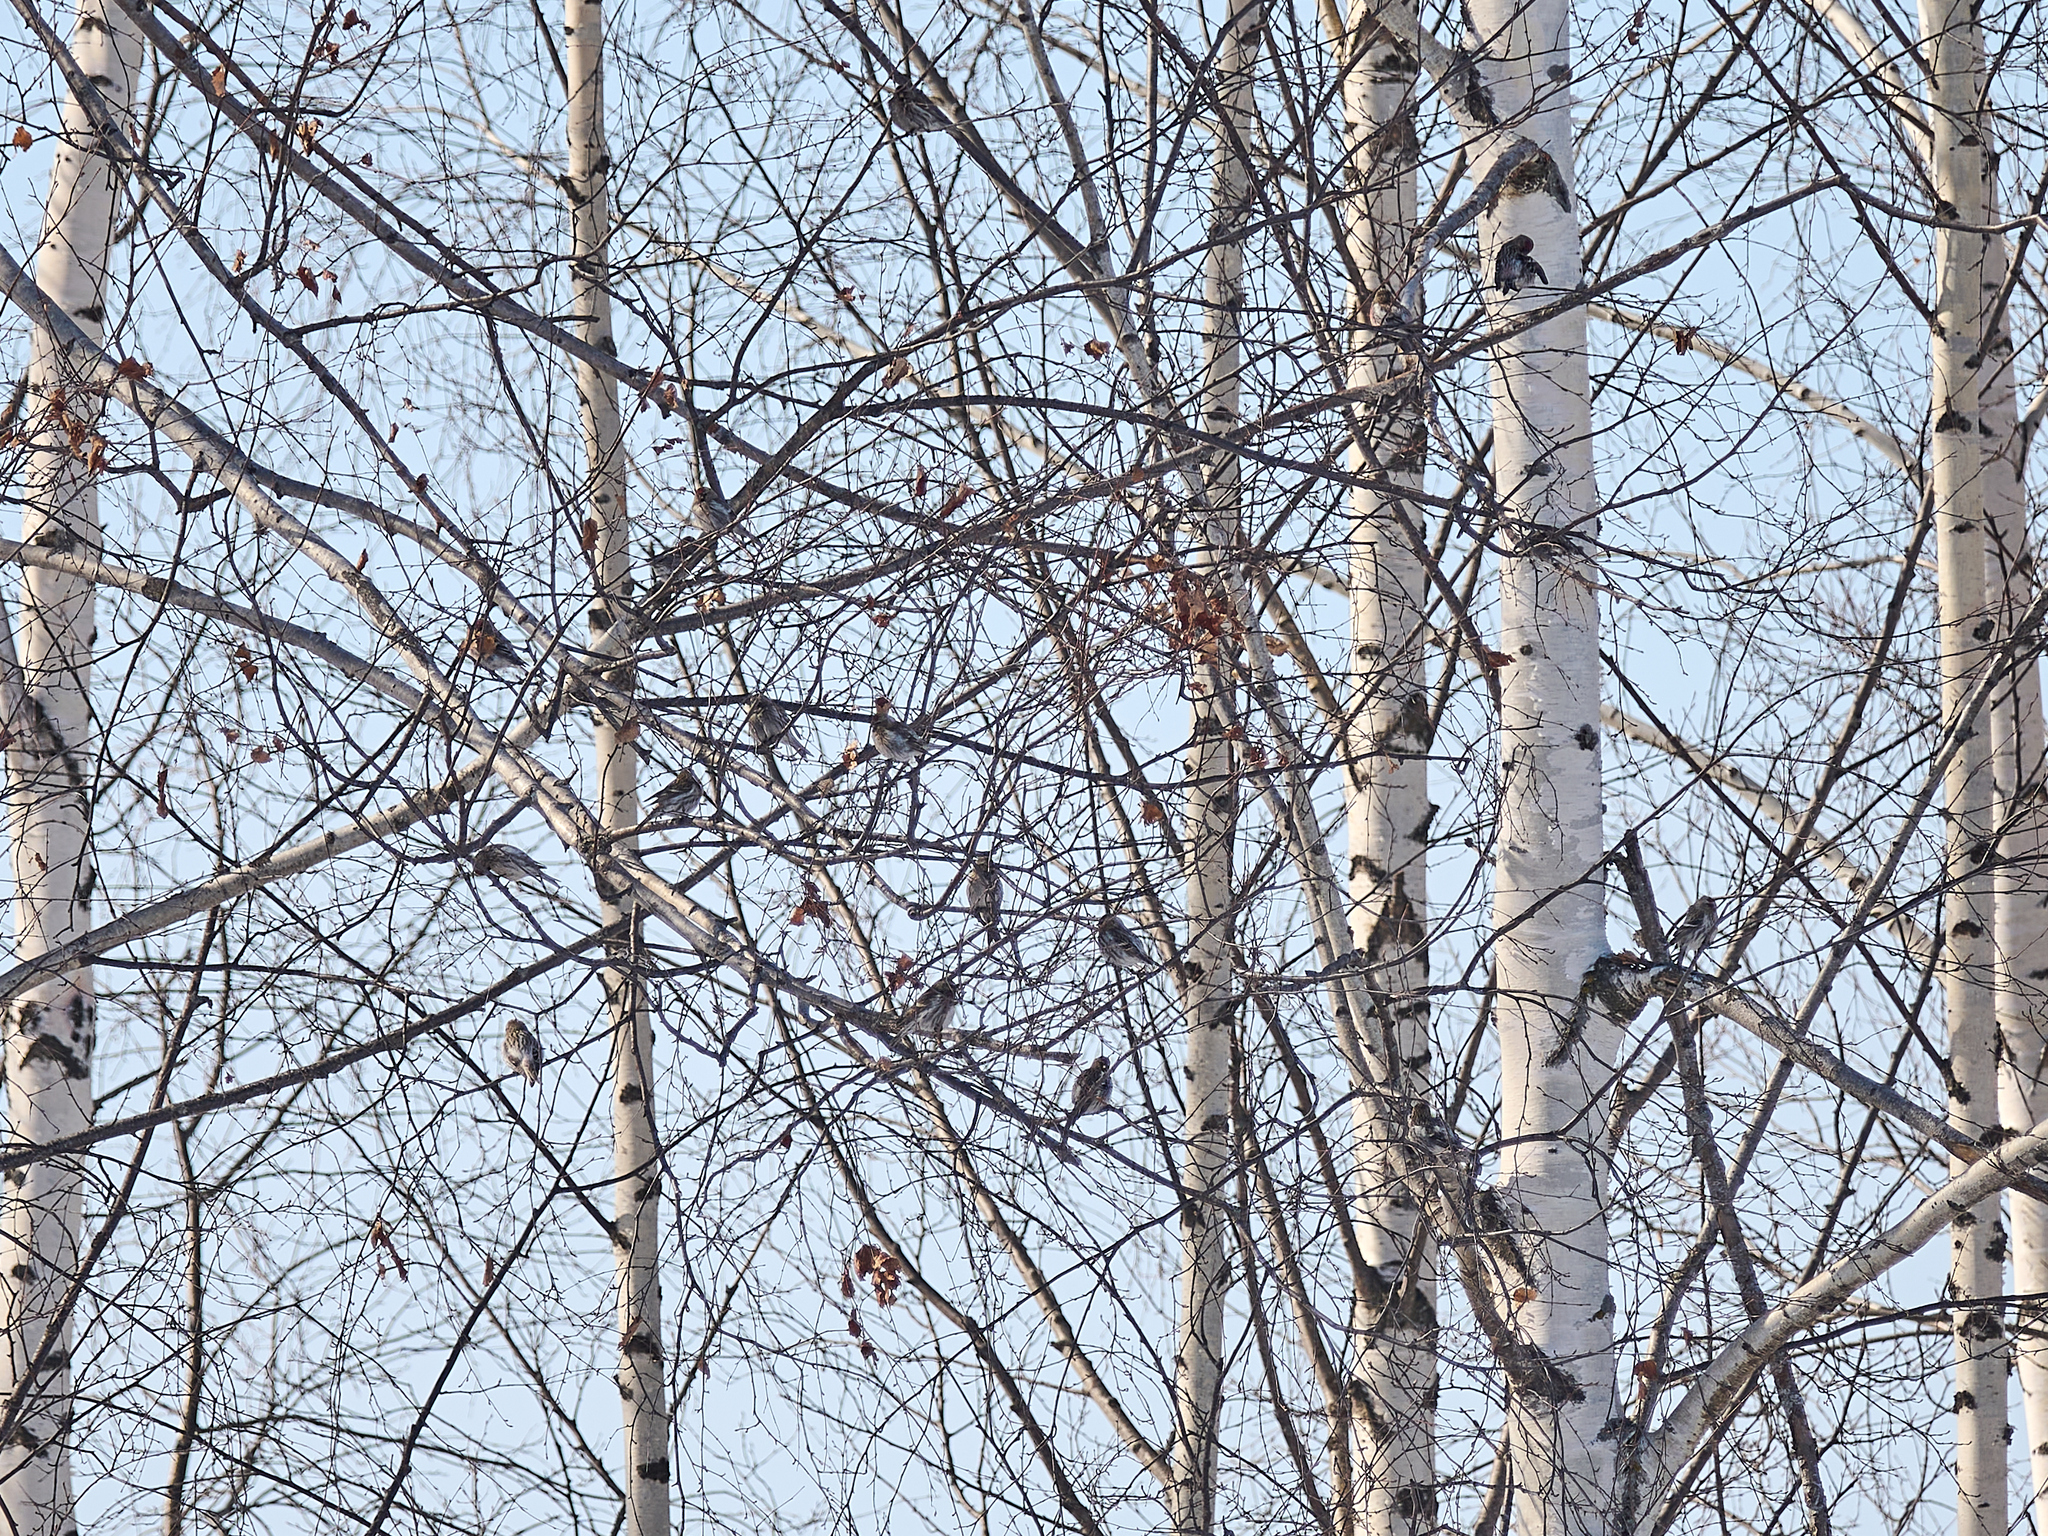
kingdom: Animalia
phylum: Chordata
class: Aves
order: Passeriformes
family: Fringillidae
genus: Acanthis
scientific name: Acanthis flammea
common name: Common redpoll
